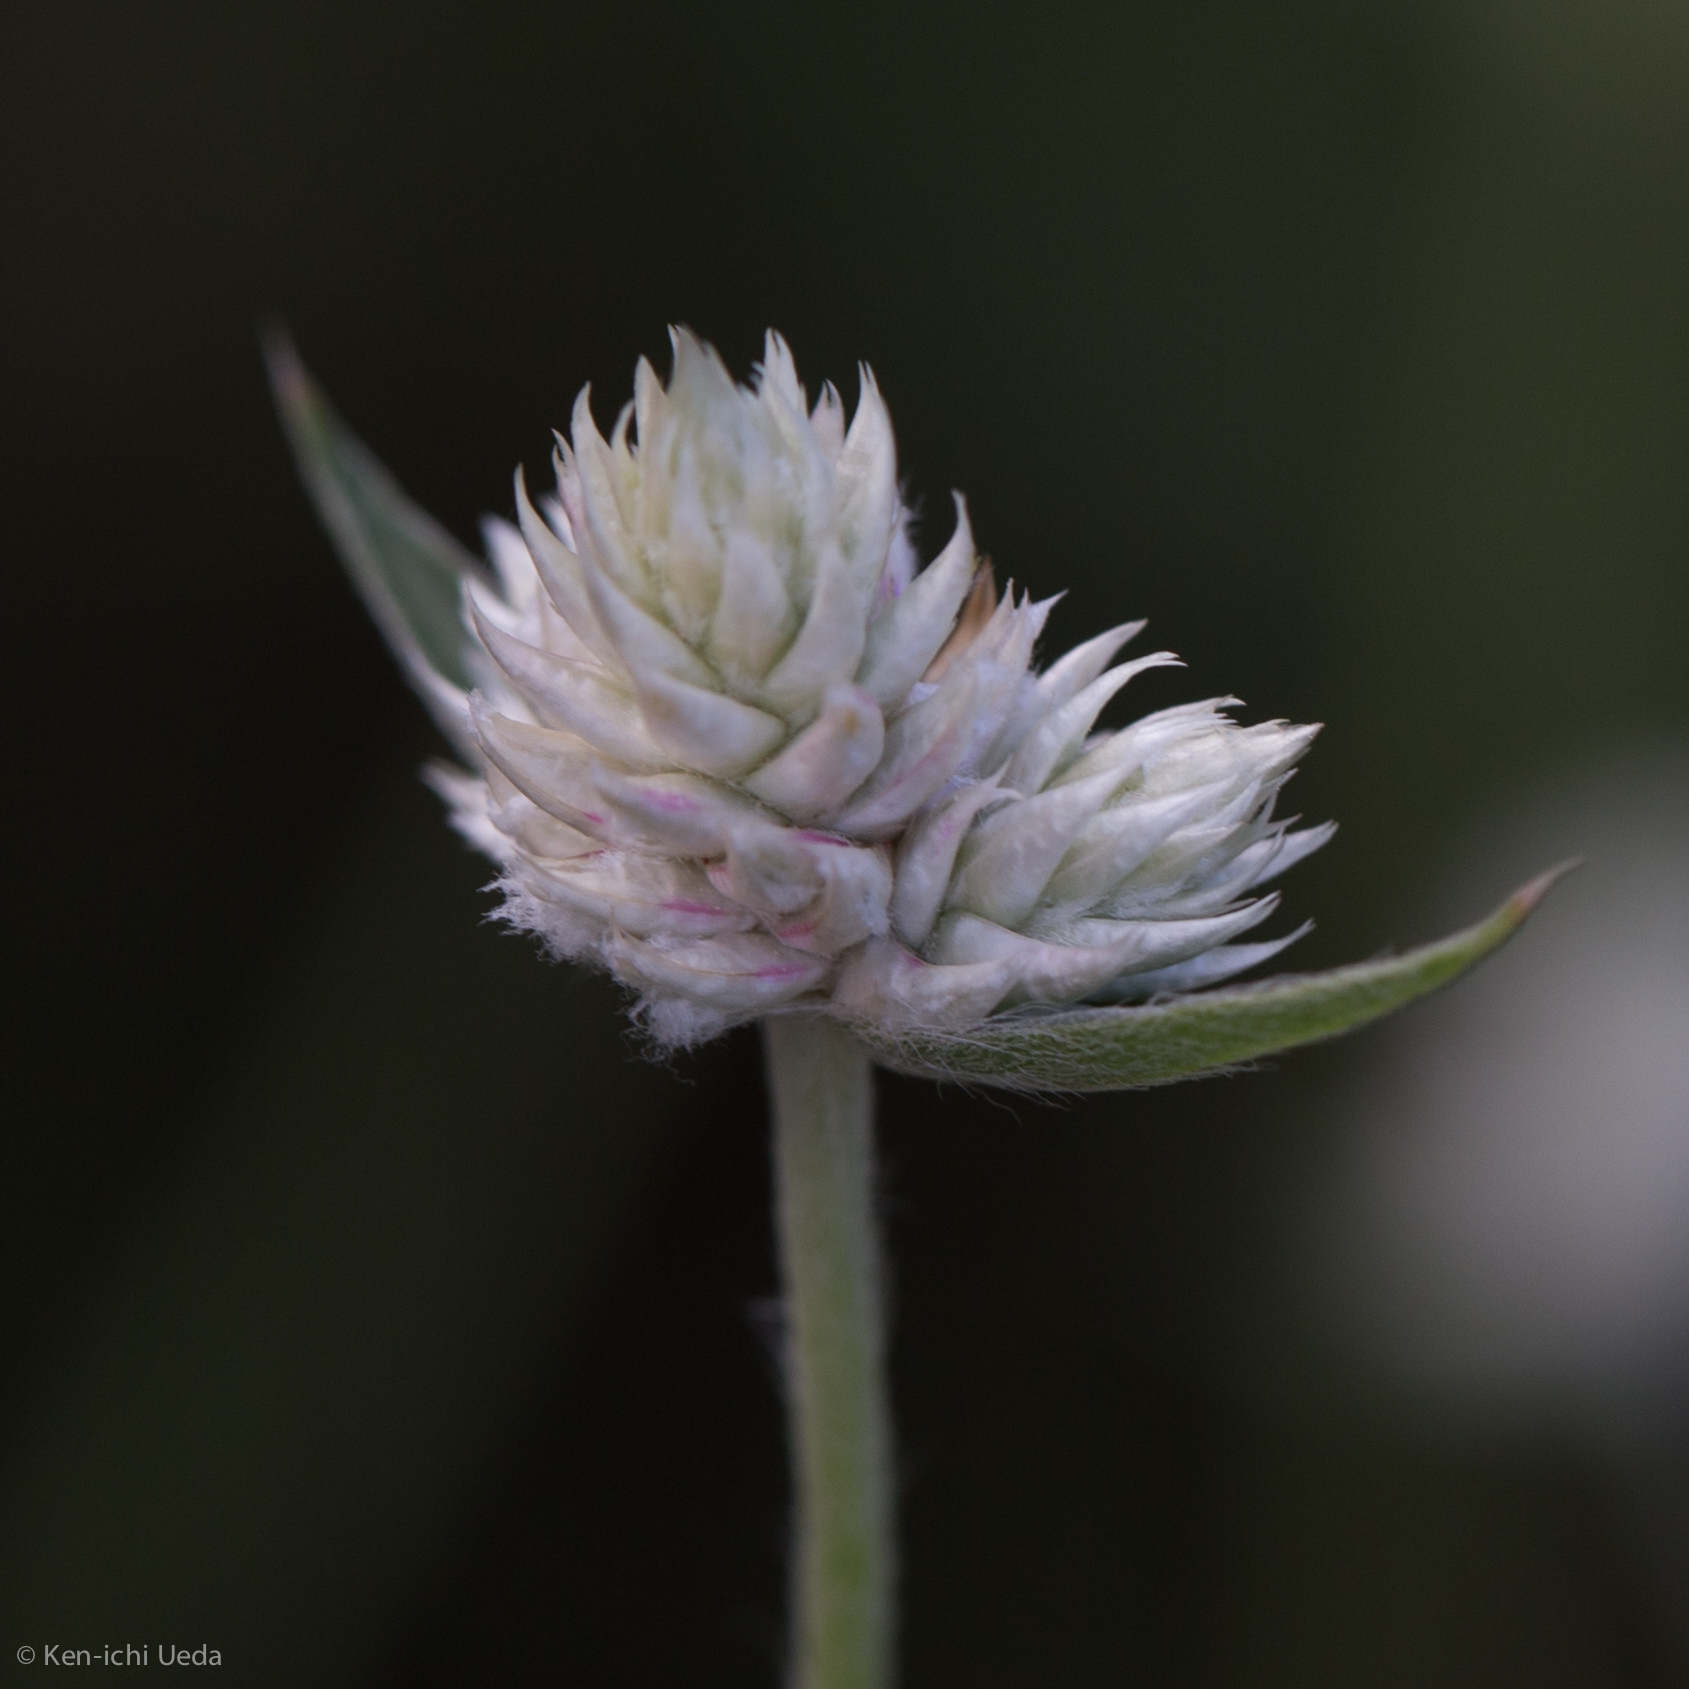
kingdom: Plantae
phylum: Tracheophyta
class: Magnoliopsida
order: Caryophyllales
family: Amaranthaceae
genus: Gomphrena
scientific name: Gomphrena sonorae
